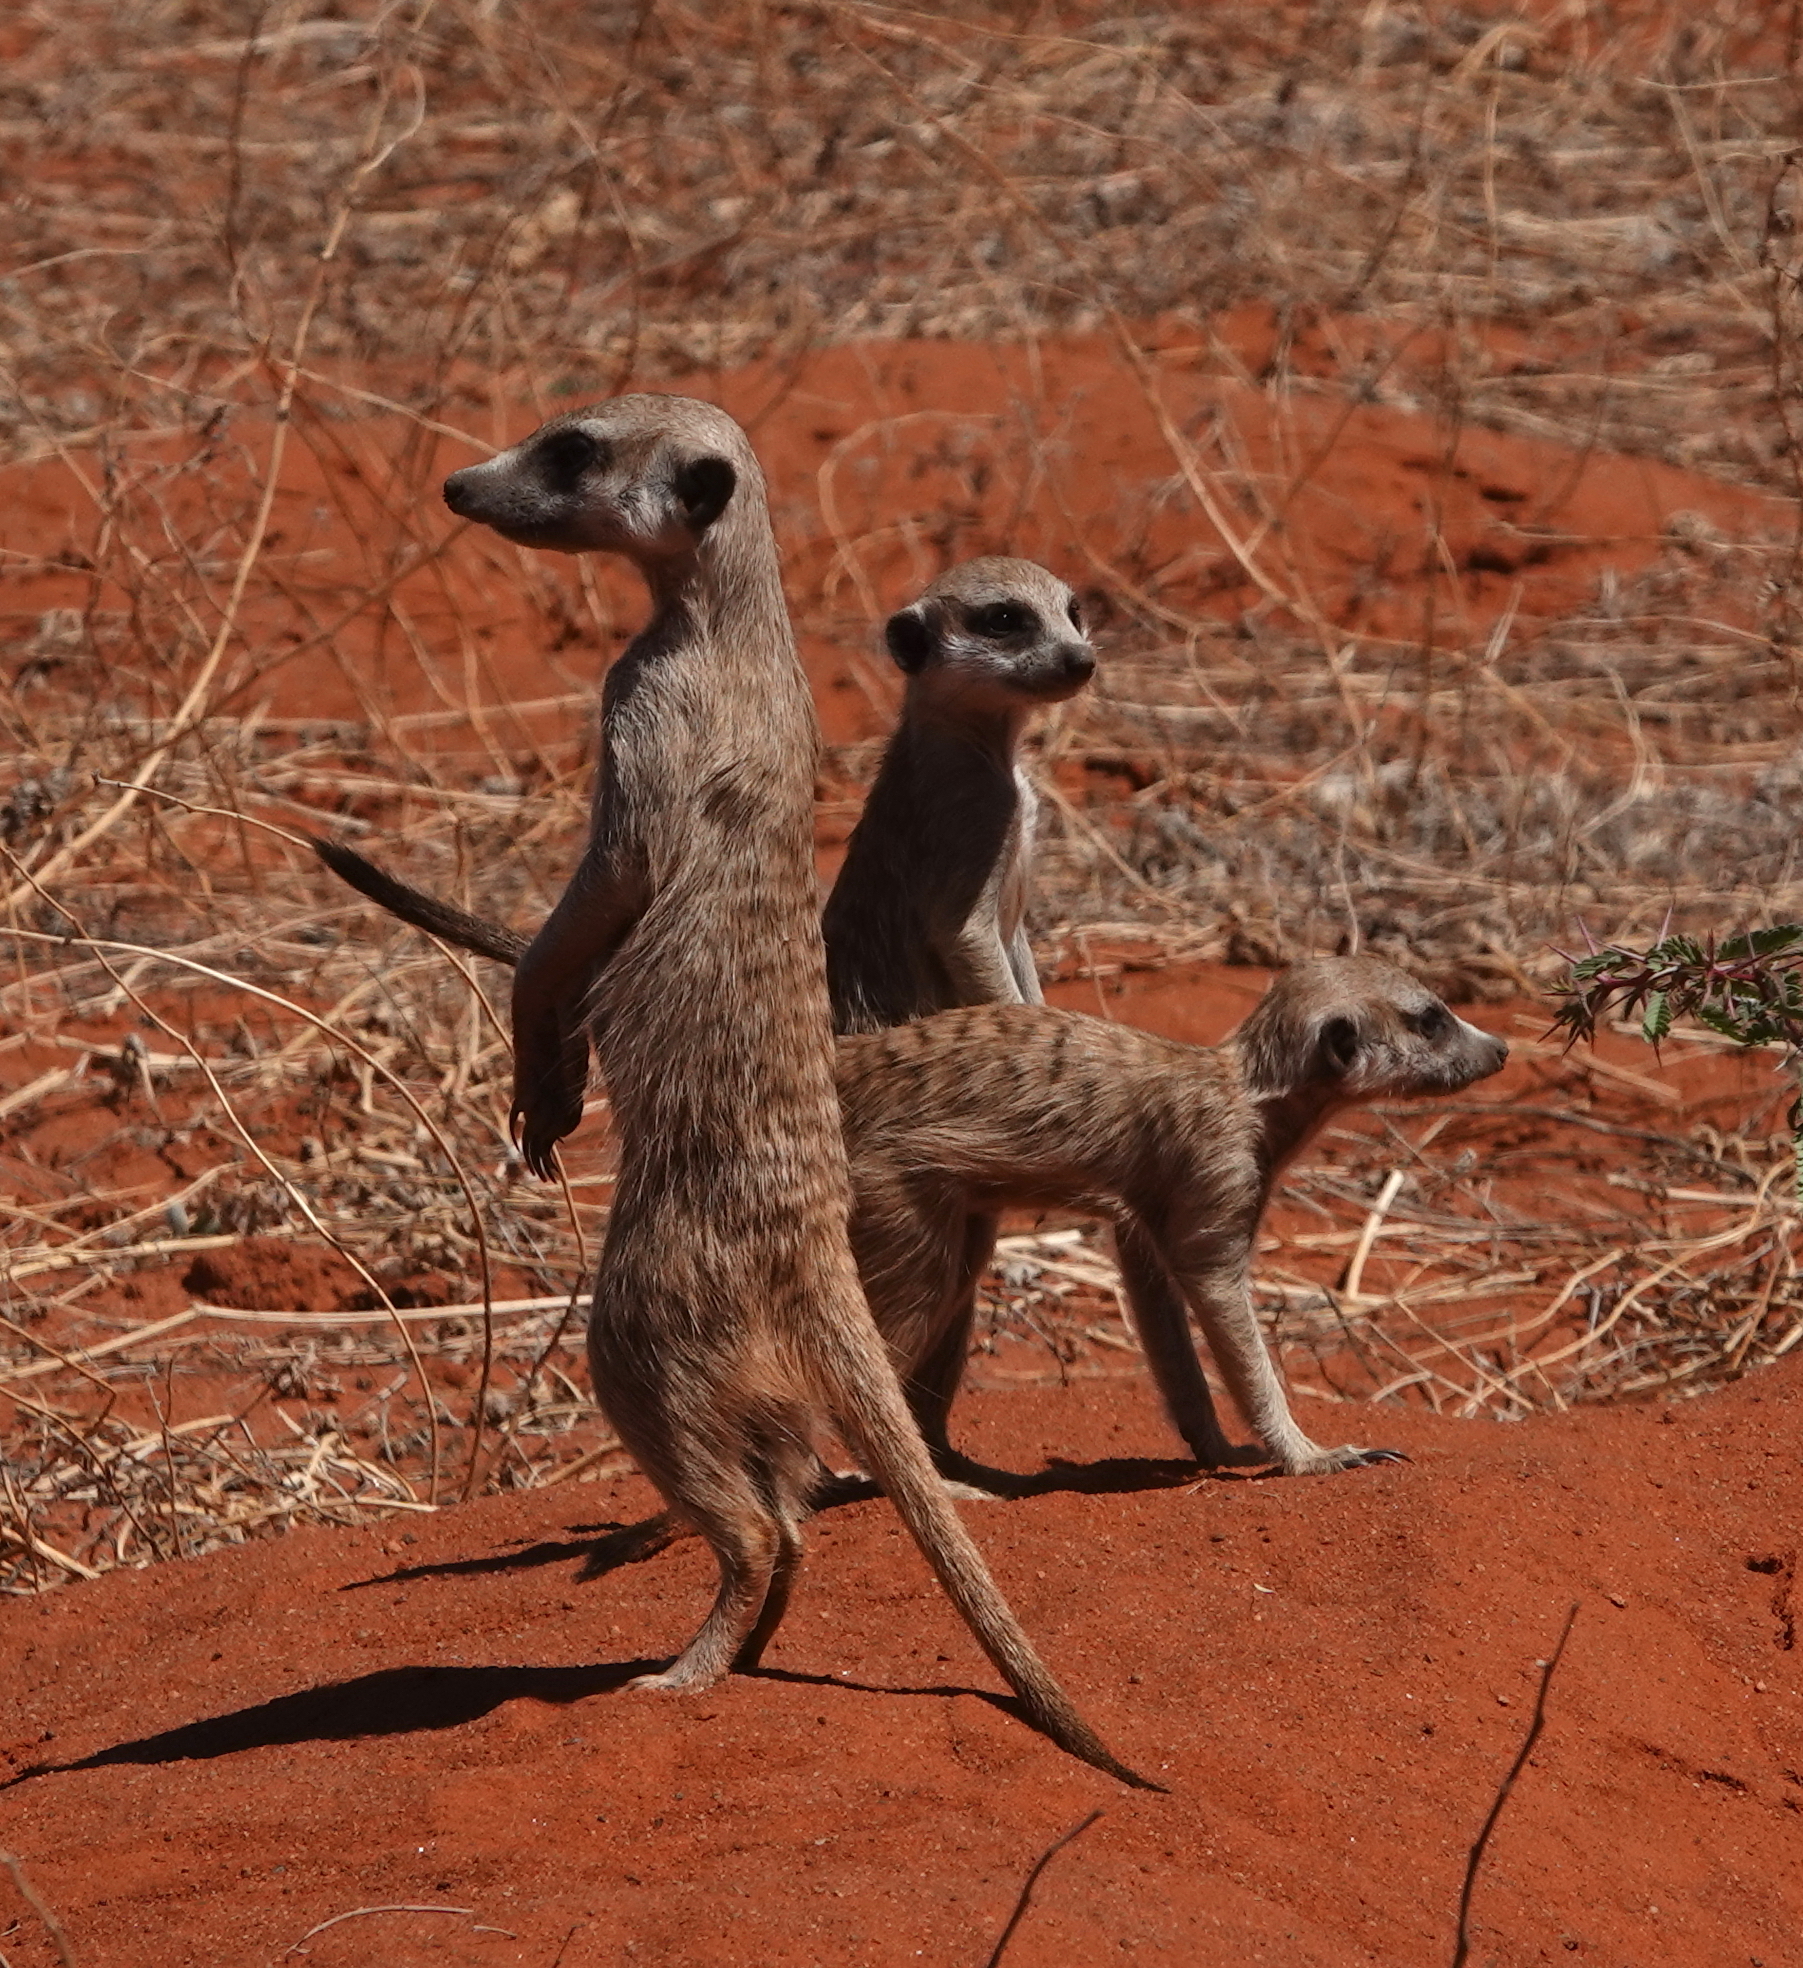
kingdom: Animalia
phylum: Chordata
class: Mammalia
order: Carnivora
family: Herpestidae
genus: Suricata
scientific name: Suricata suricatta
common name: Meerkat
